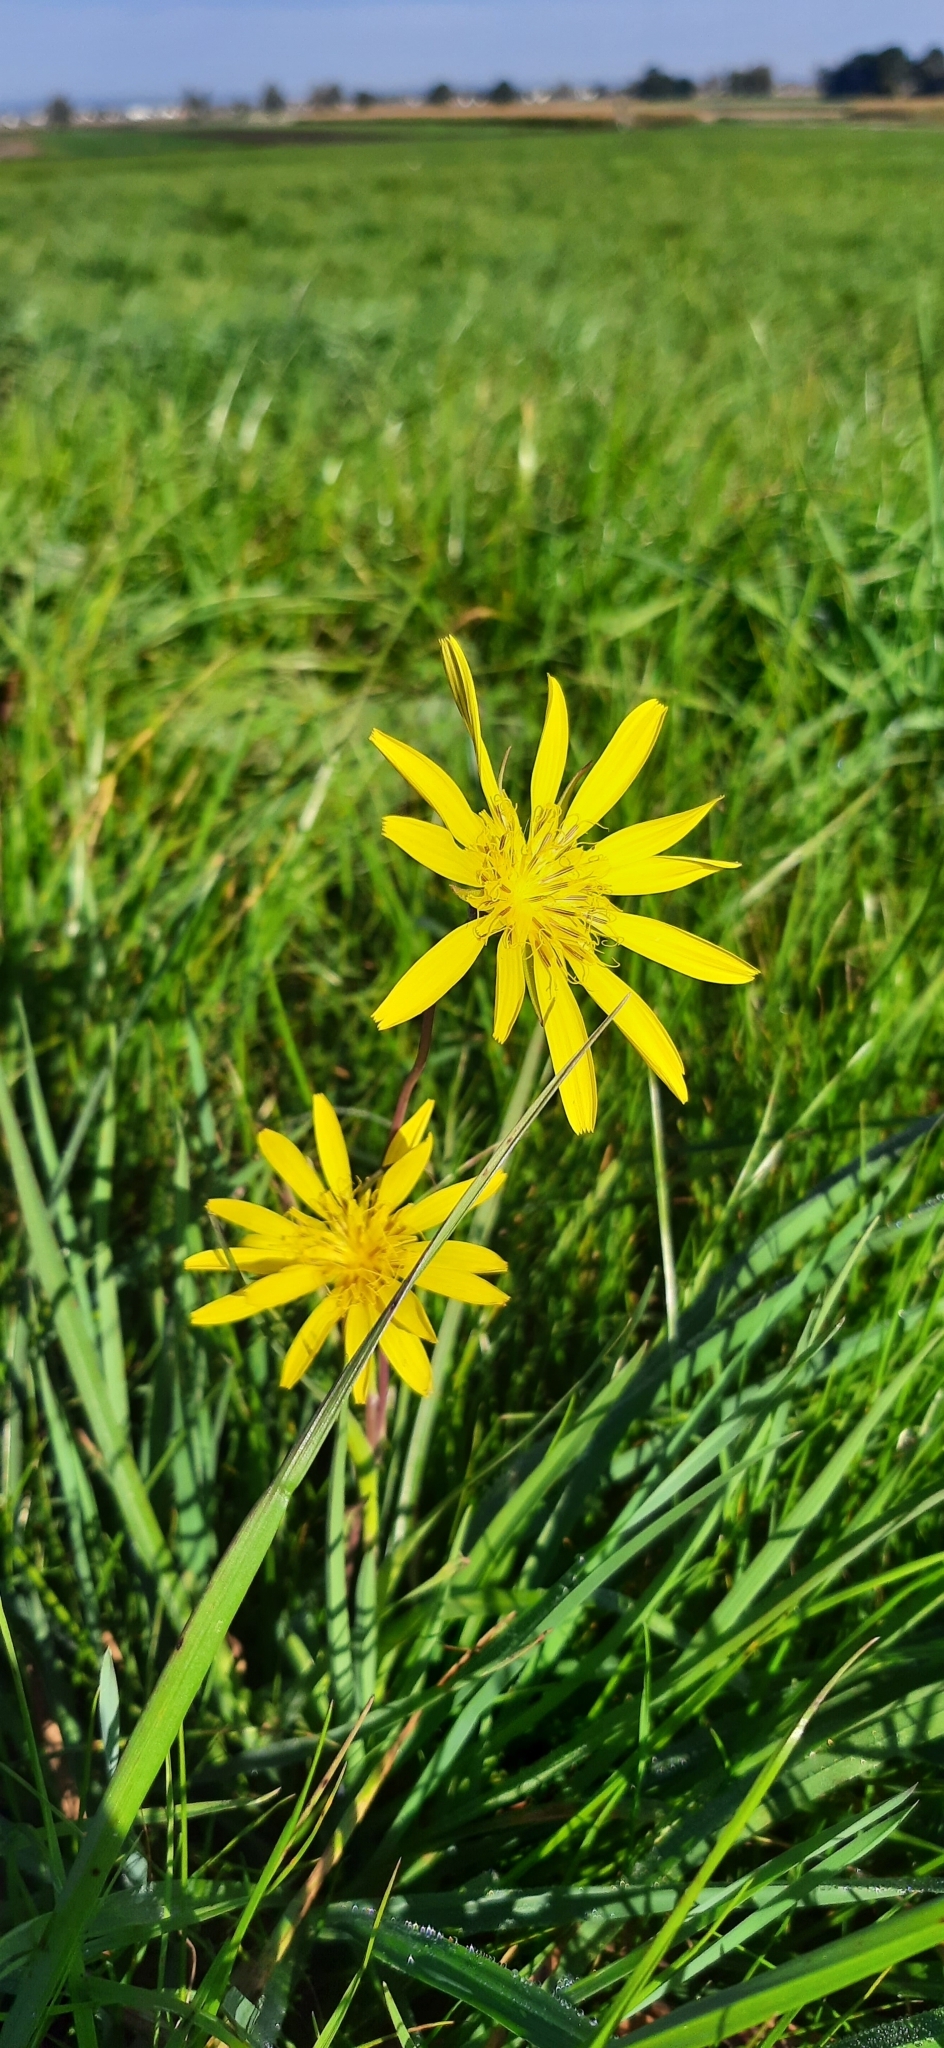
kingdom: Plantae
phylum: Tracheophyta
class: Magnoliopsida
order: Asterales
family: Asteraceae
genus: Tragopogon
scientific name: Tragopogon orientalis
